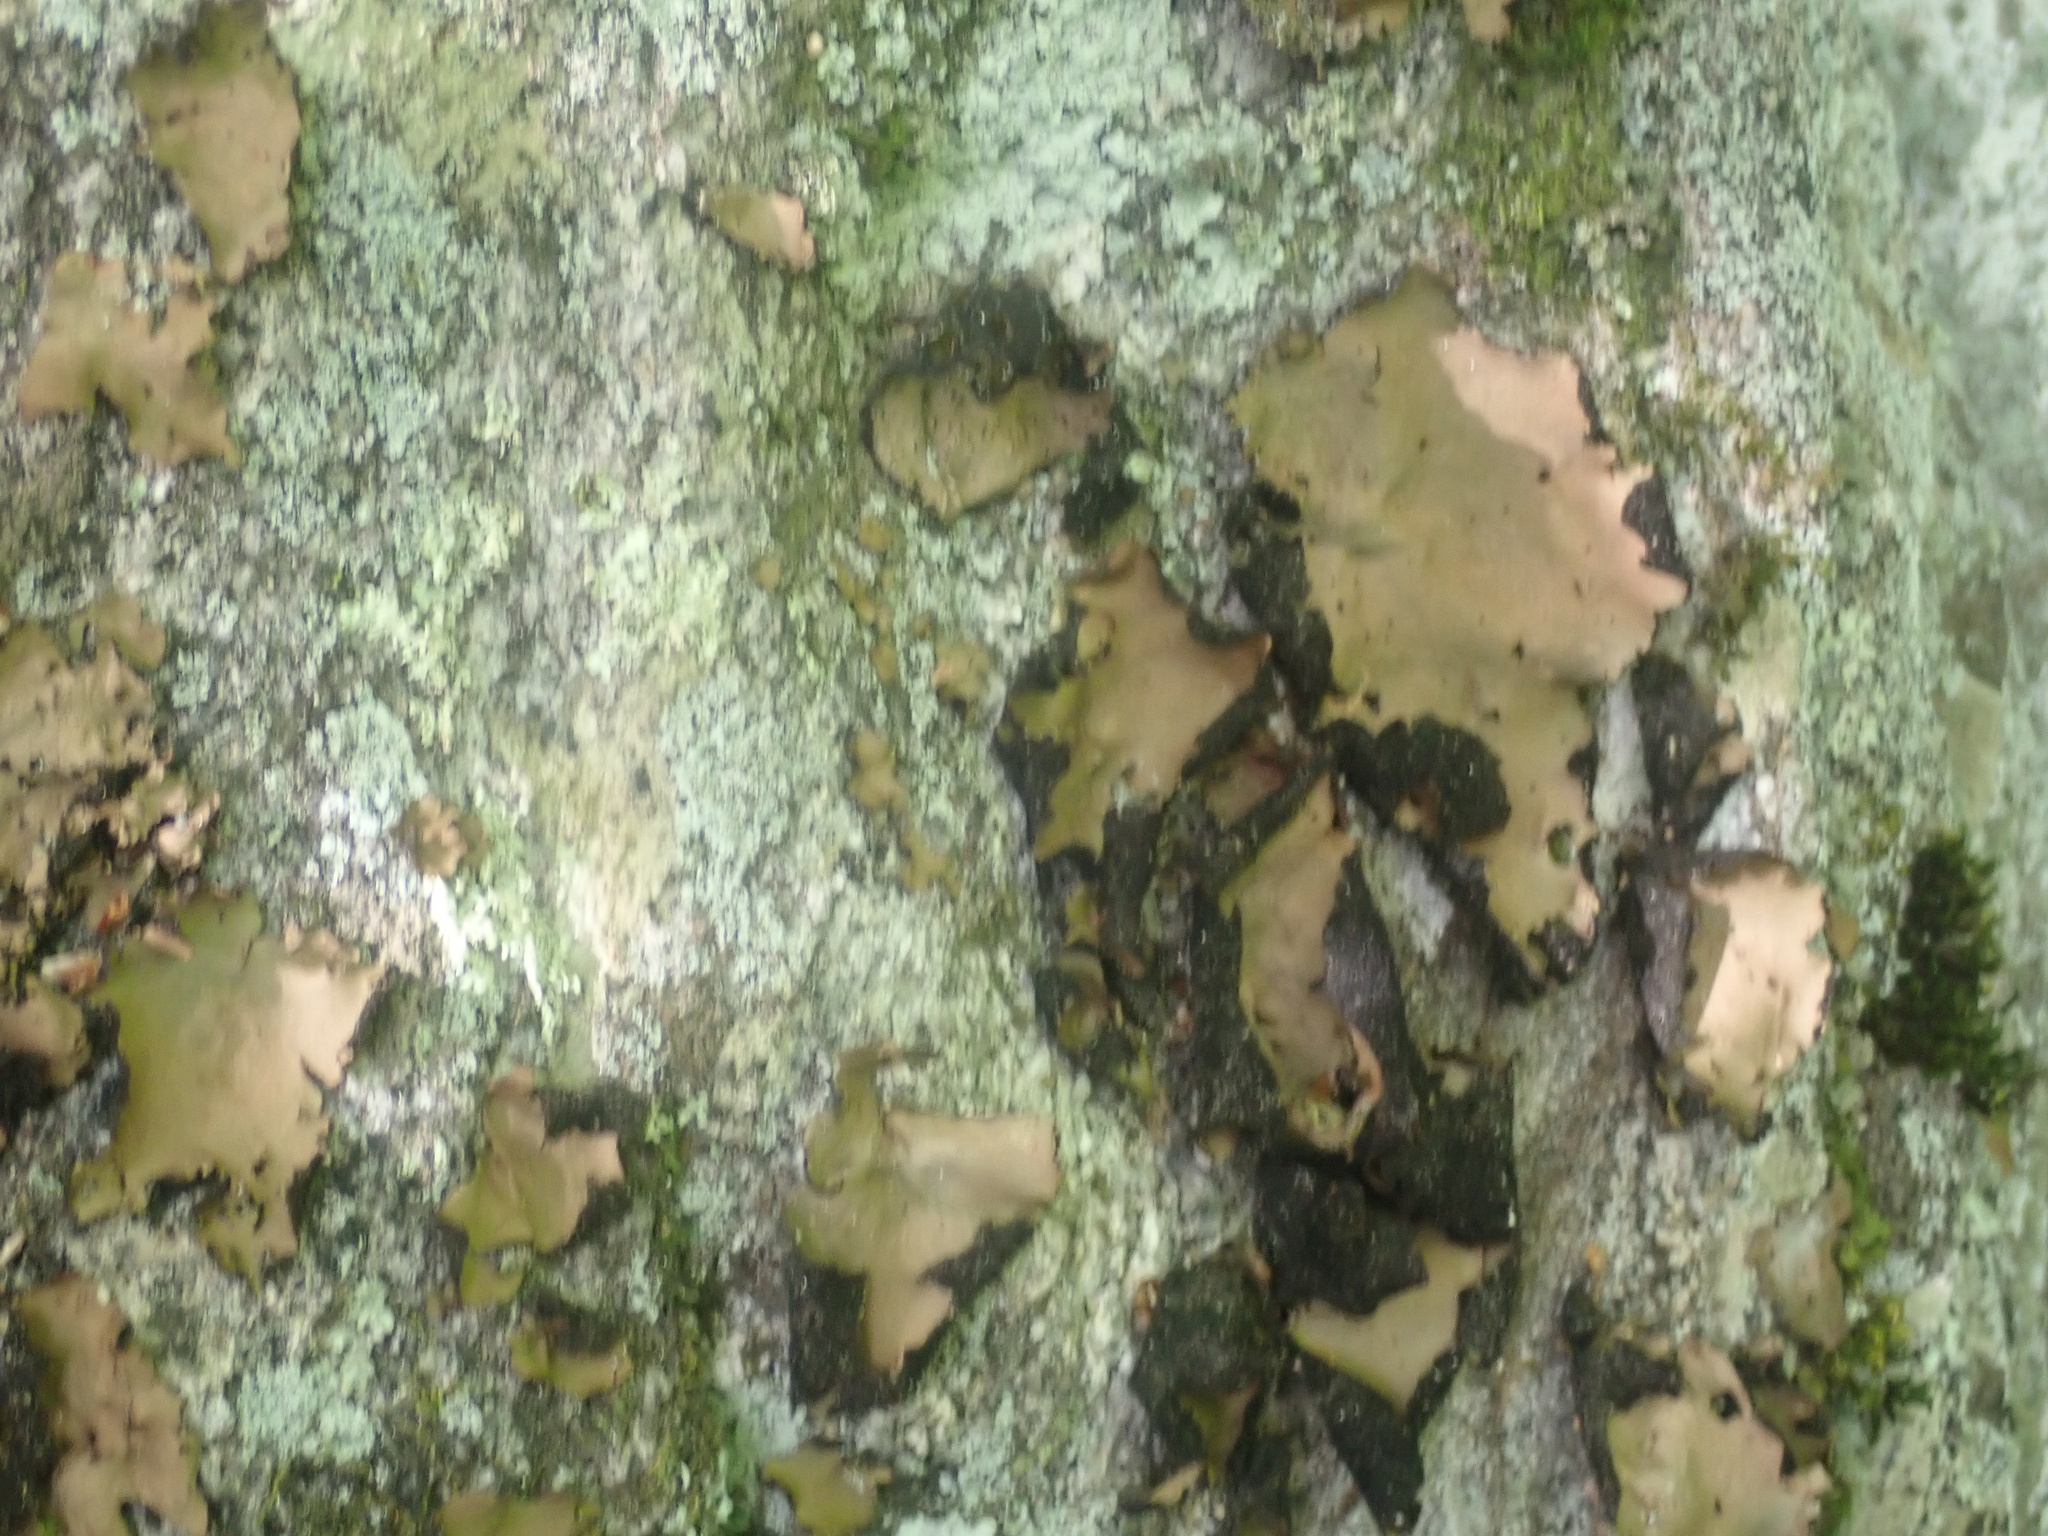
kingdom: Fungi
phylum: Ascomycota
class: Lecanoromycetes
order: Umbilicariales
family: Umbilicariaceae
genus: Umbilicaria
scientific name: Umbilicaria mammulata
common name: Smooth rock tripe
